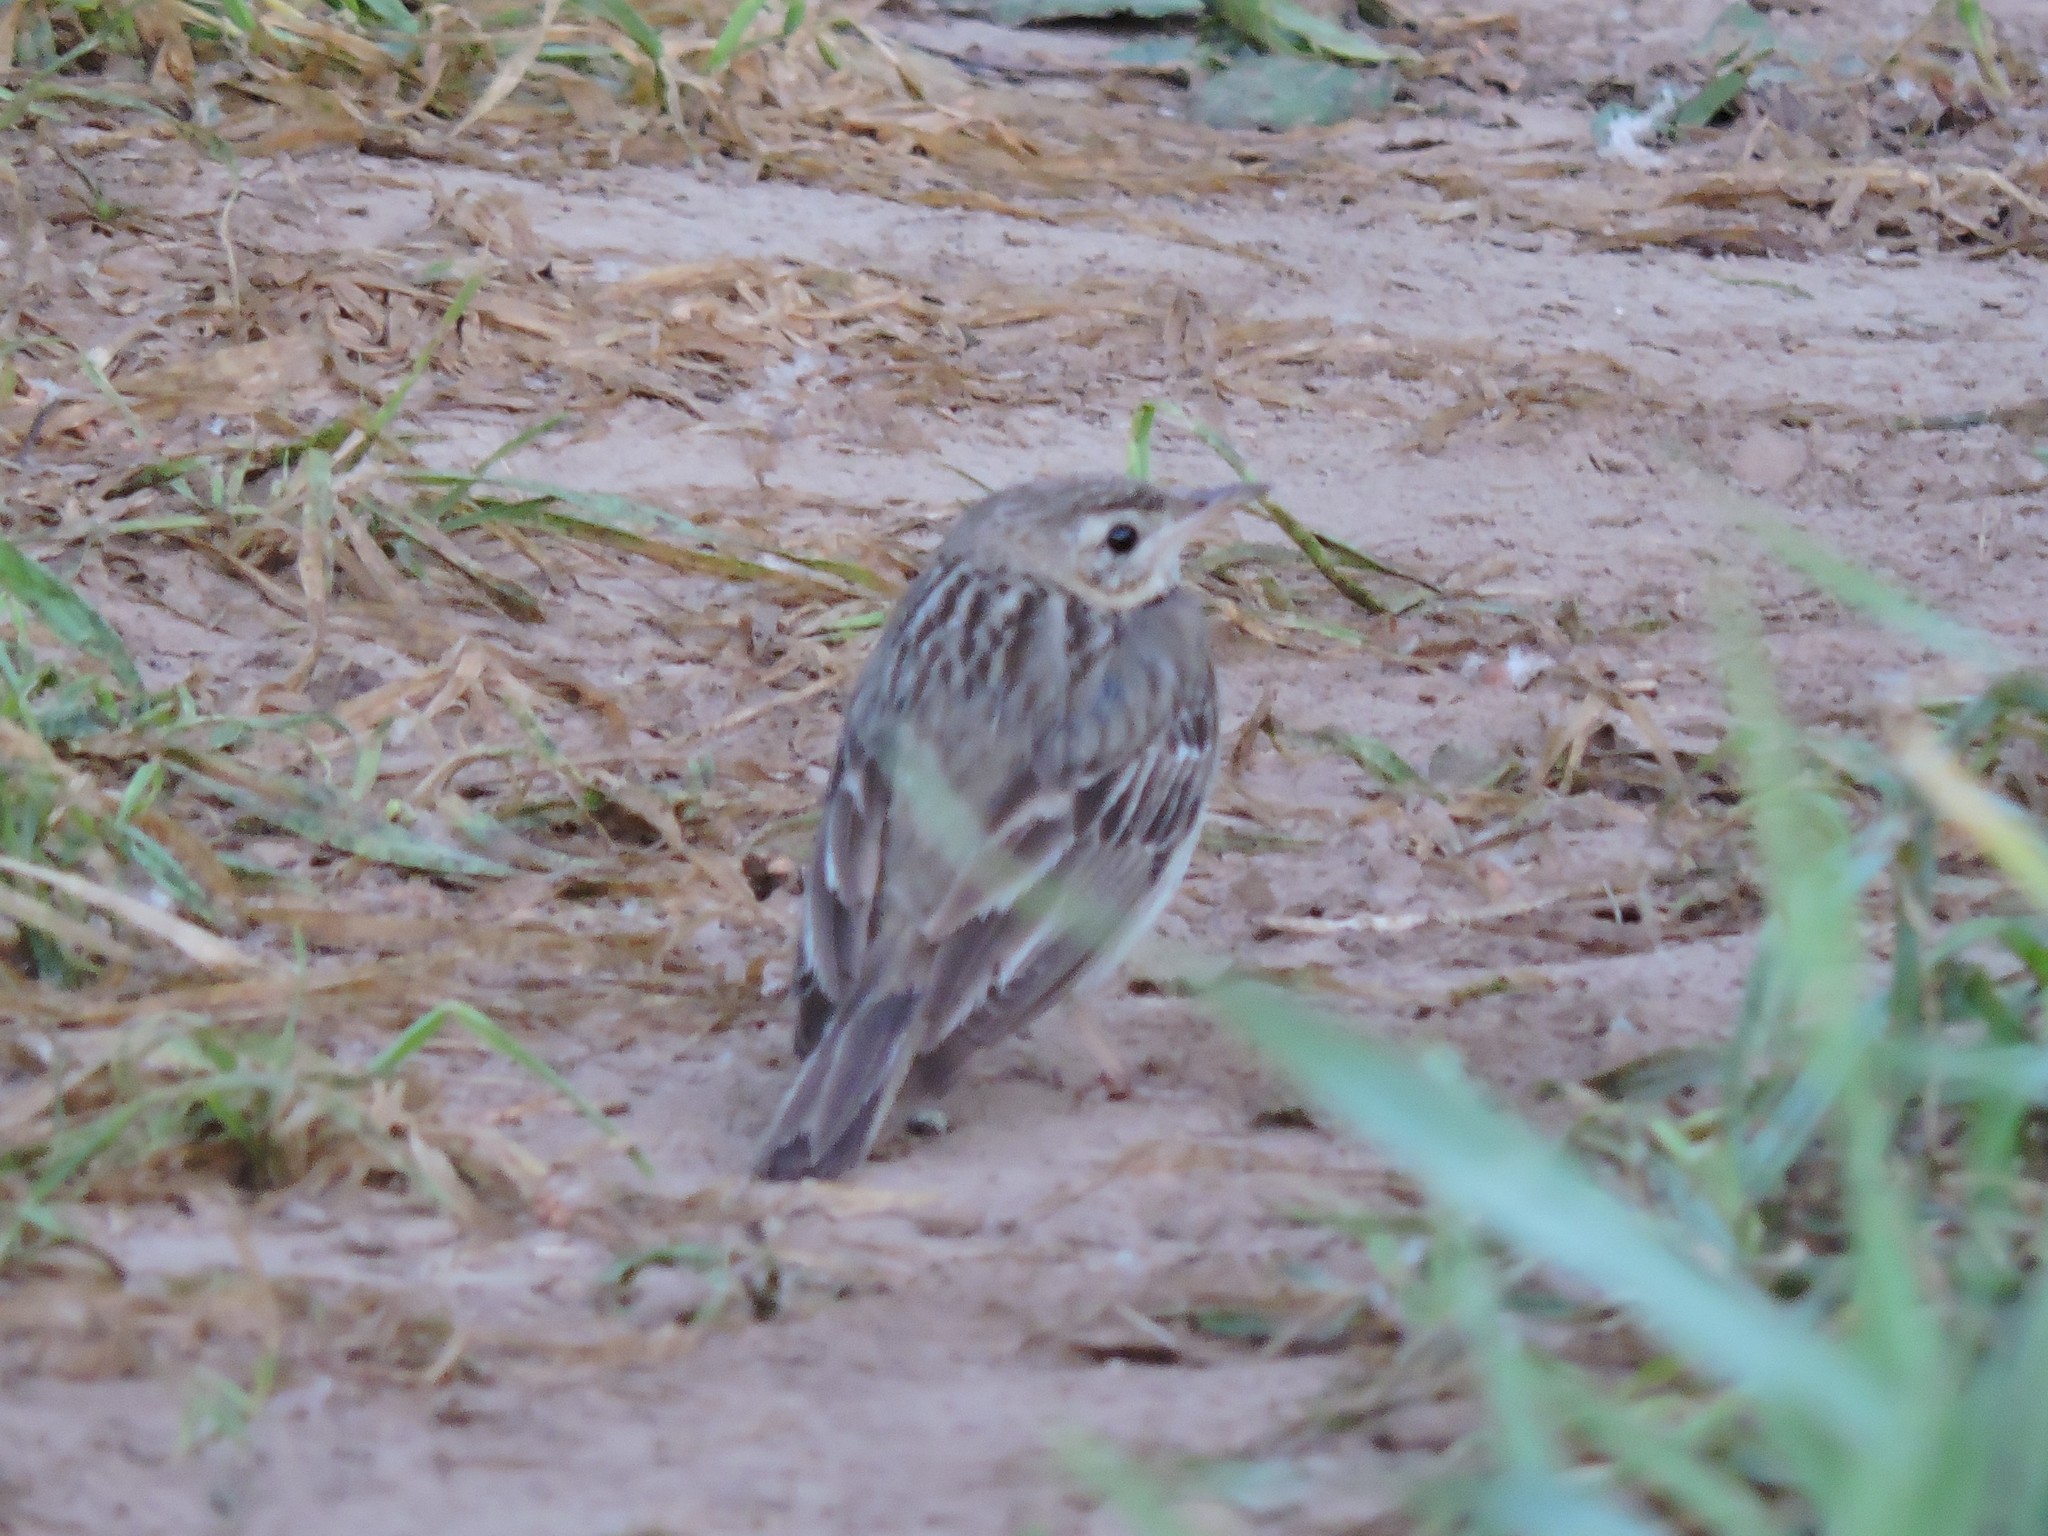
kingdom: Animalia
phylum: Chordata
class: Aves
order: Passeriformes
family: Motacillidae
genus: Anthus
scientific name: Anthus trivialis
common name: Tree pipit
